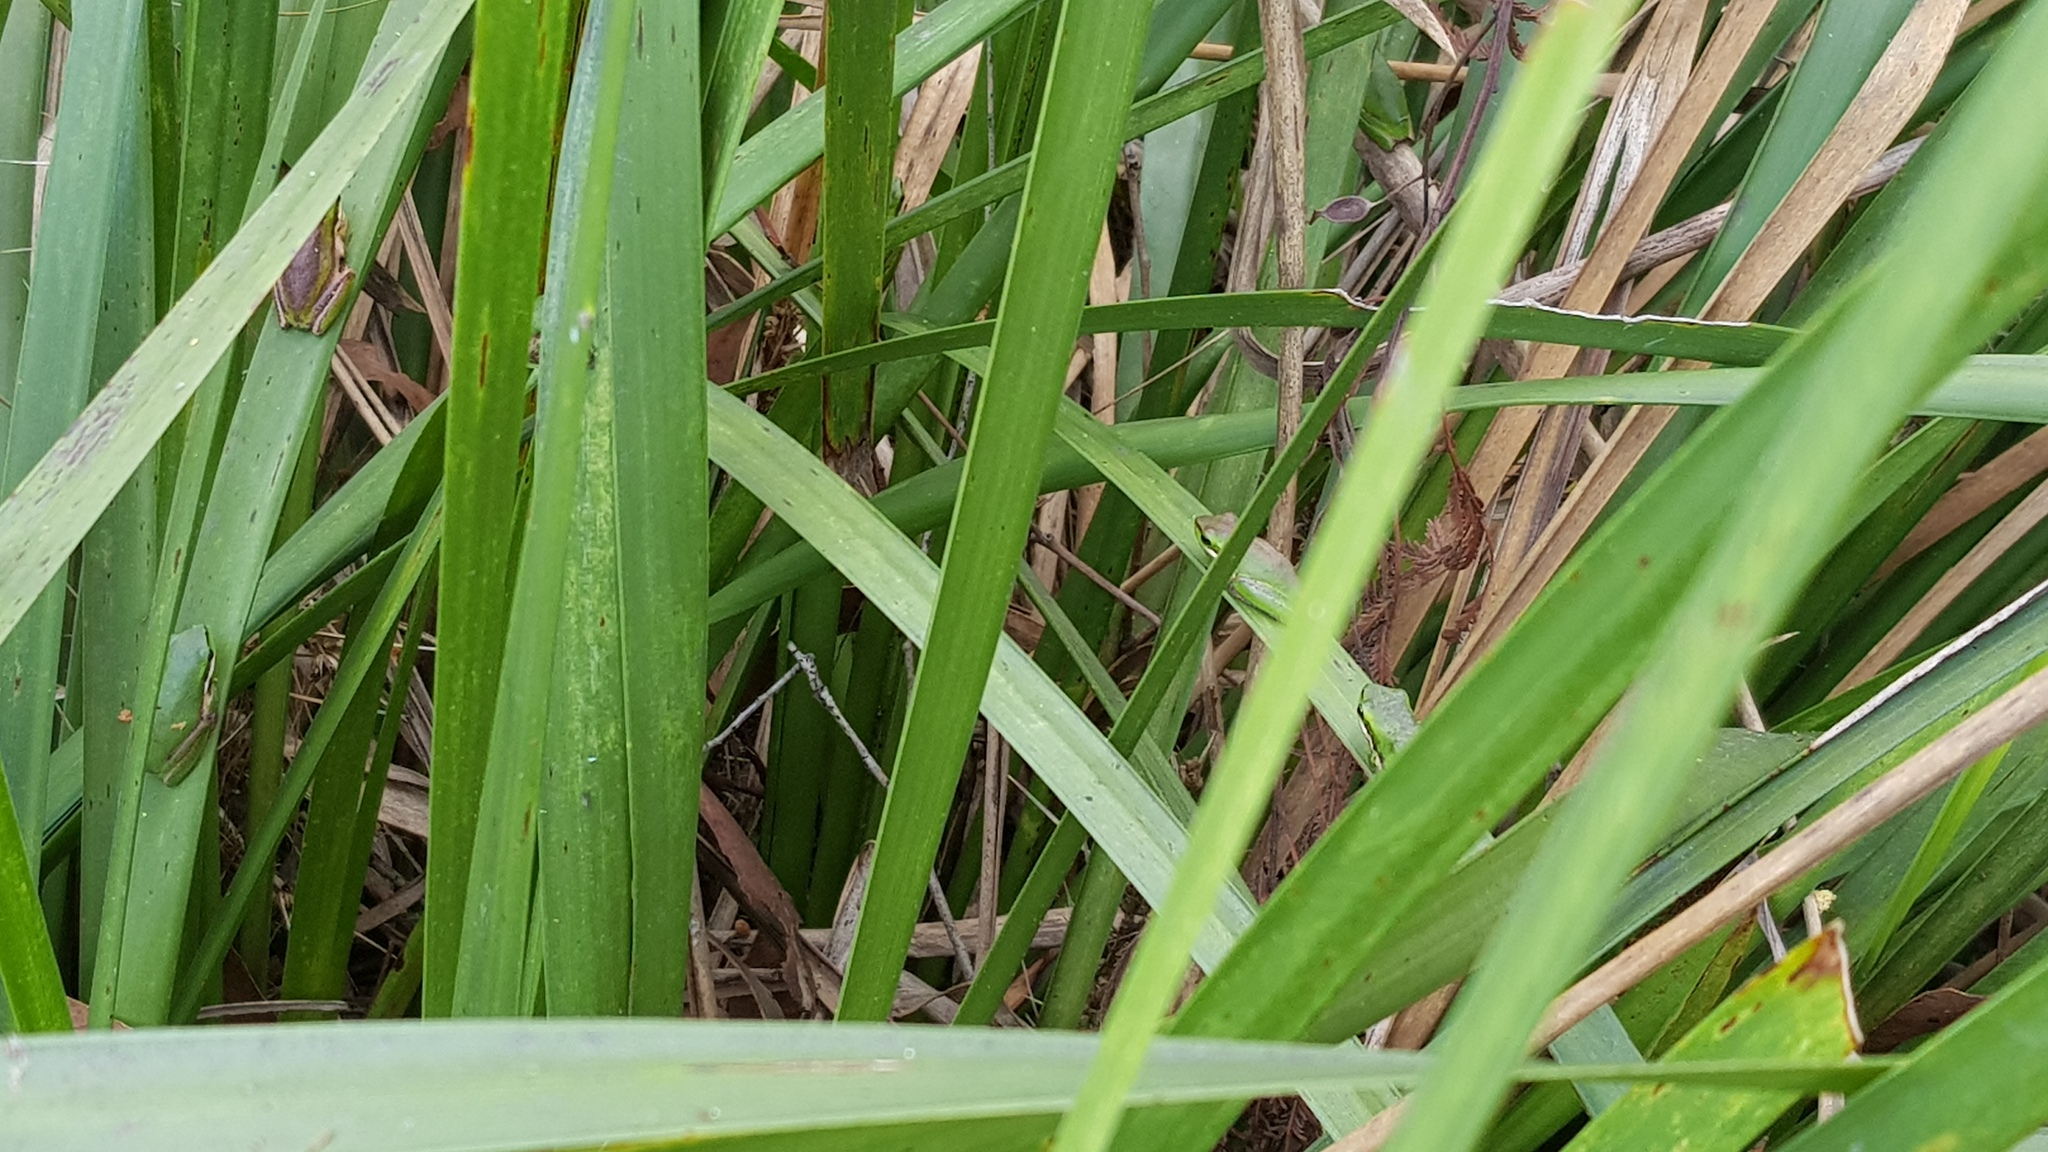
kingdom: Animalia
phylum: Chordata
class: Amphibia
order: Anura
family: Pelodryadidae
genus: Litoria
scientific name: Litoria fallax
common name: Eastern dwarf treefrog
